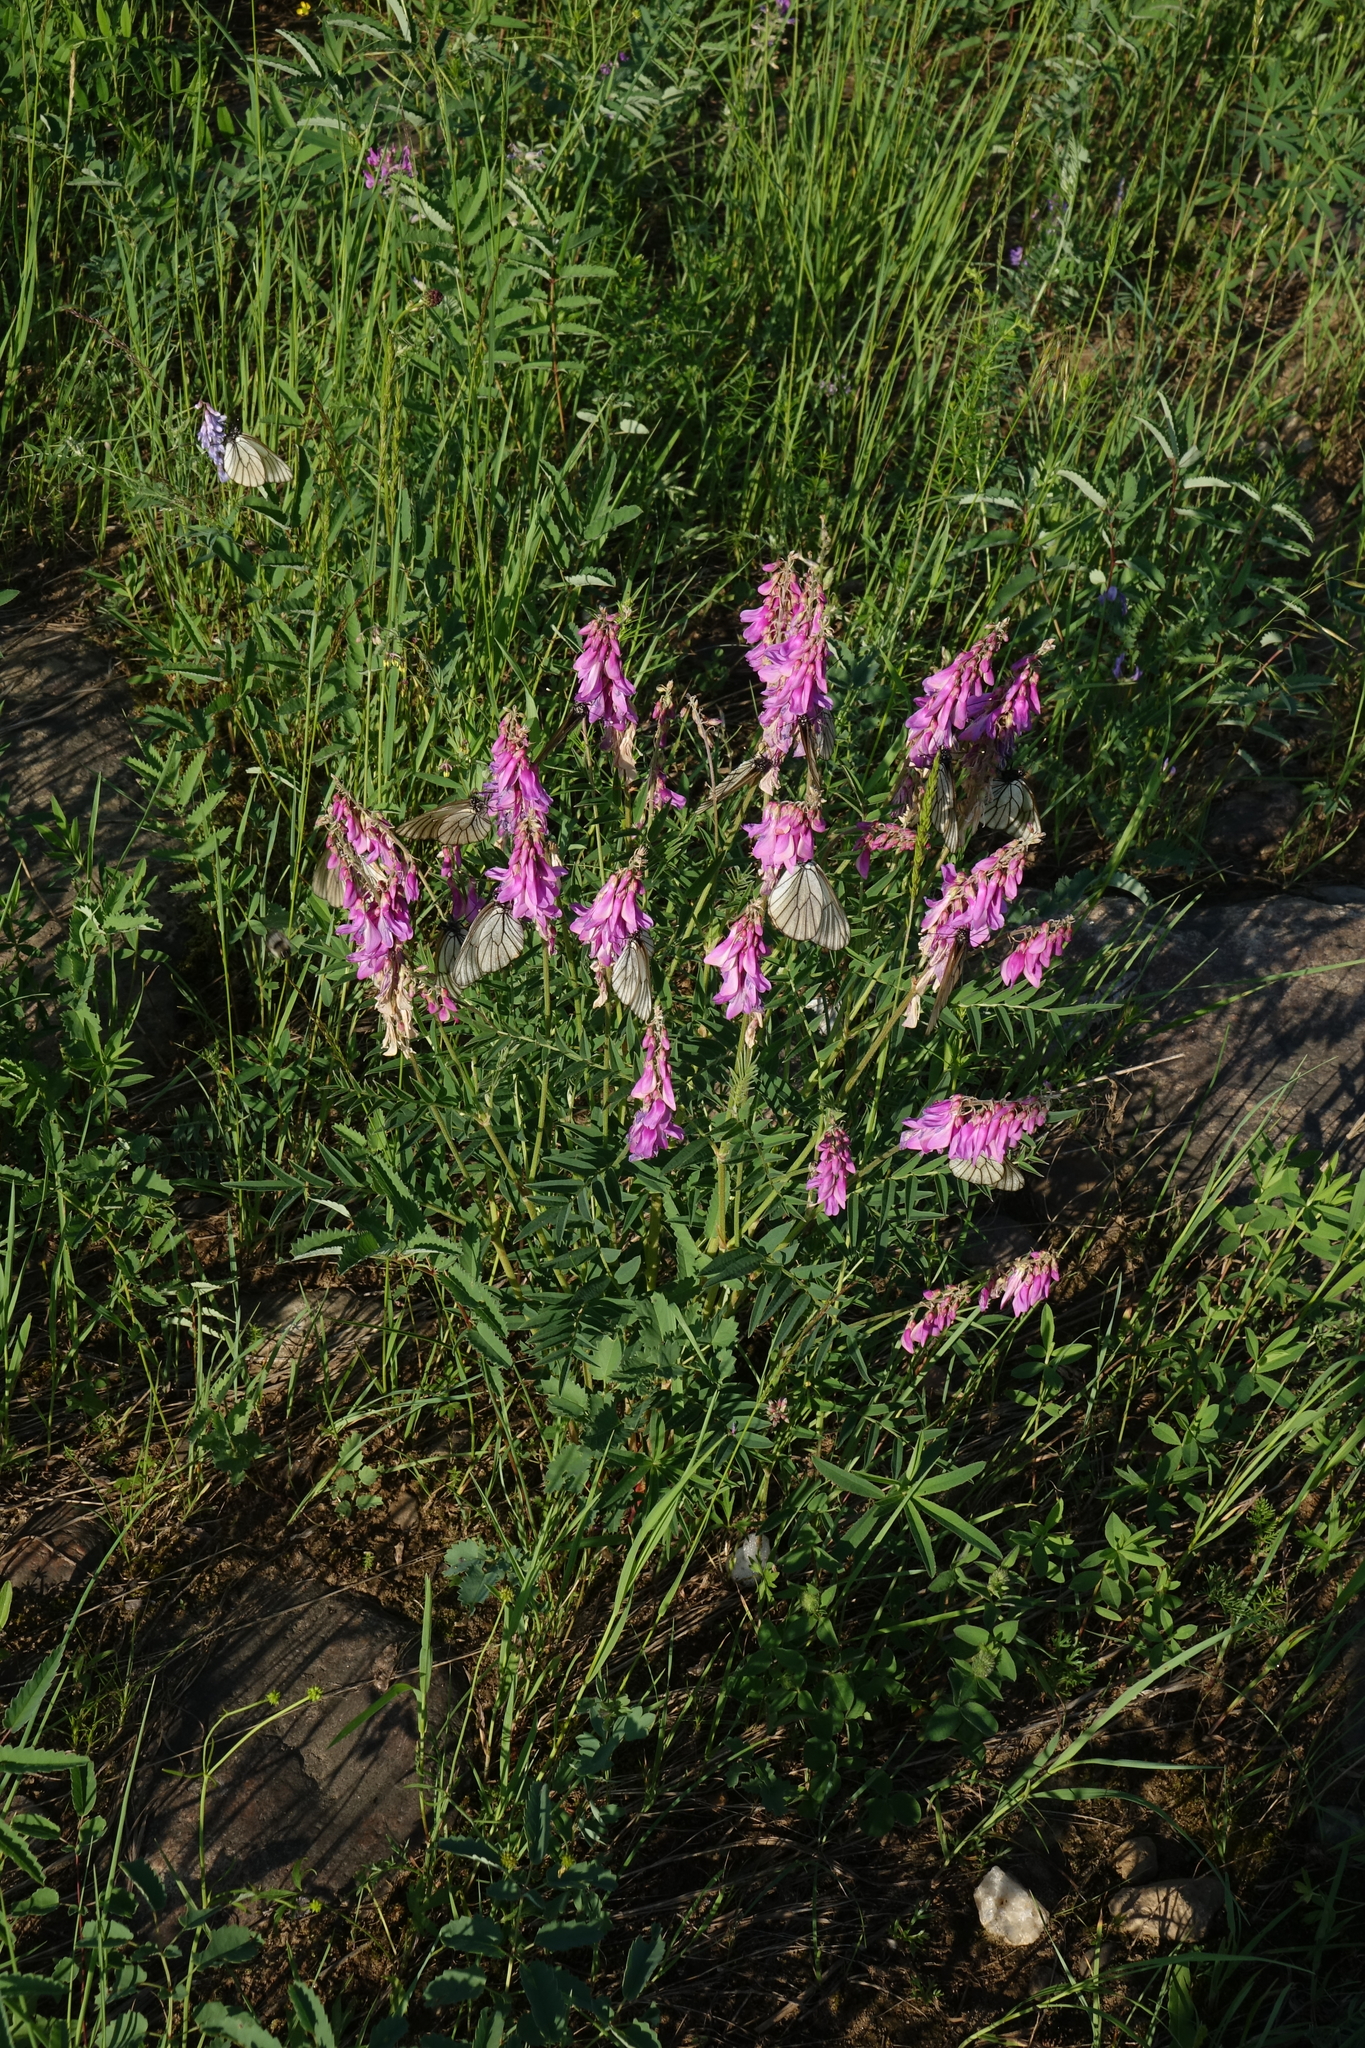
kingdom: Animalia
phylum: Arthropoda
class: Insecta
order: Lepidoptera
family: Pieridae
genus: Aporia
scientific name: Aporia crataegi
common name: Black-veined white
